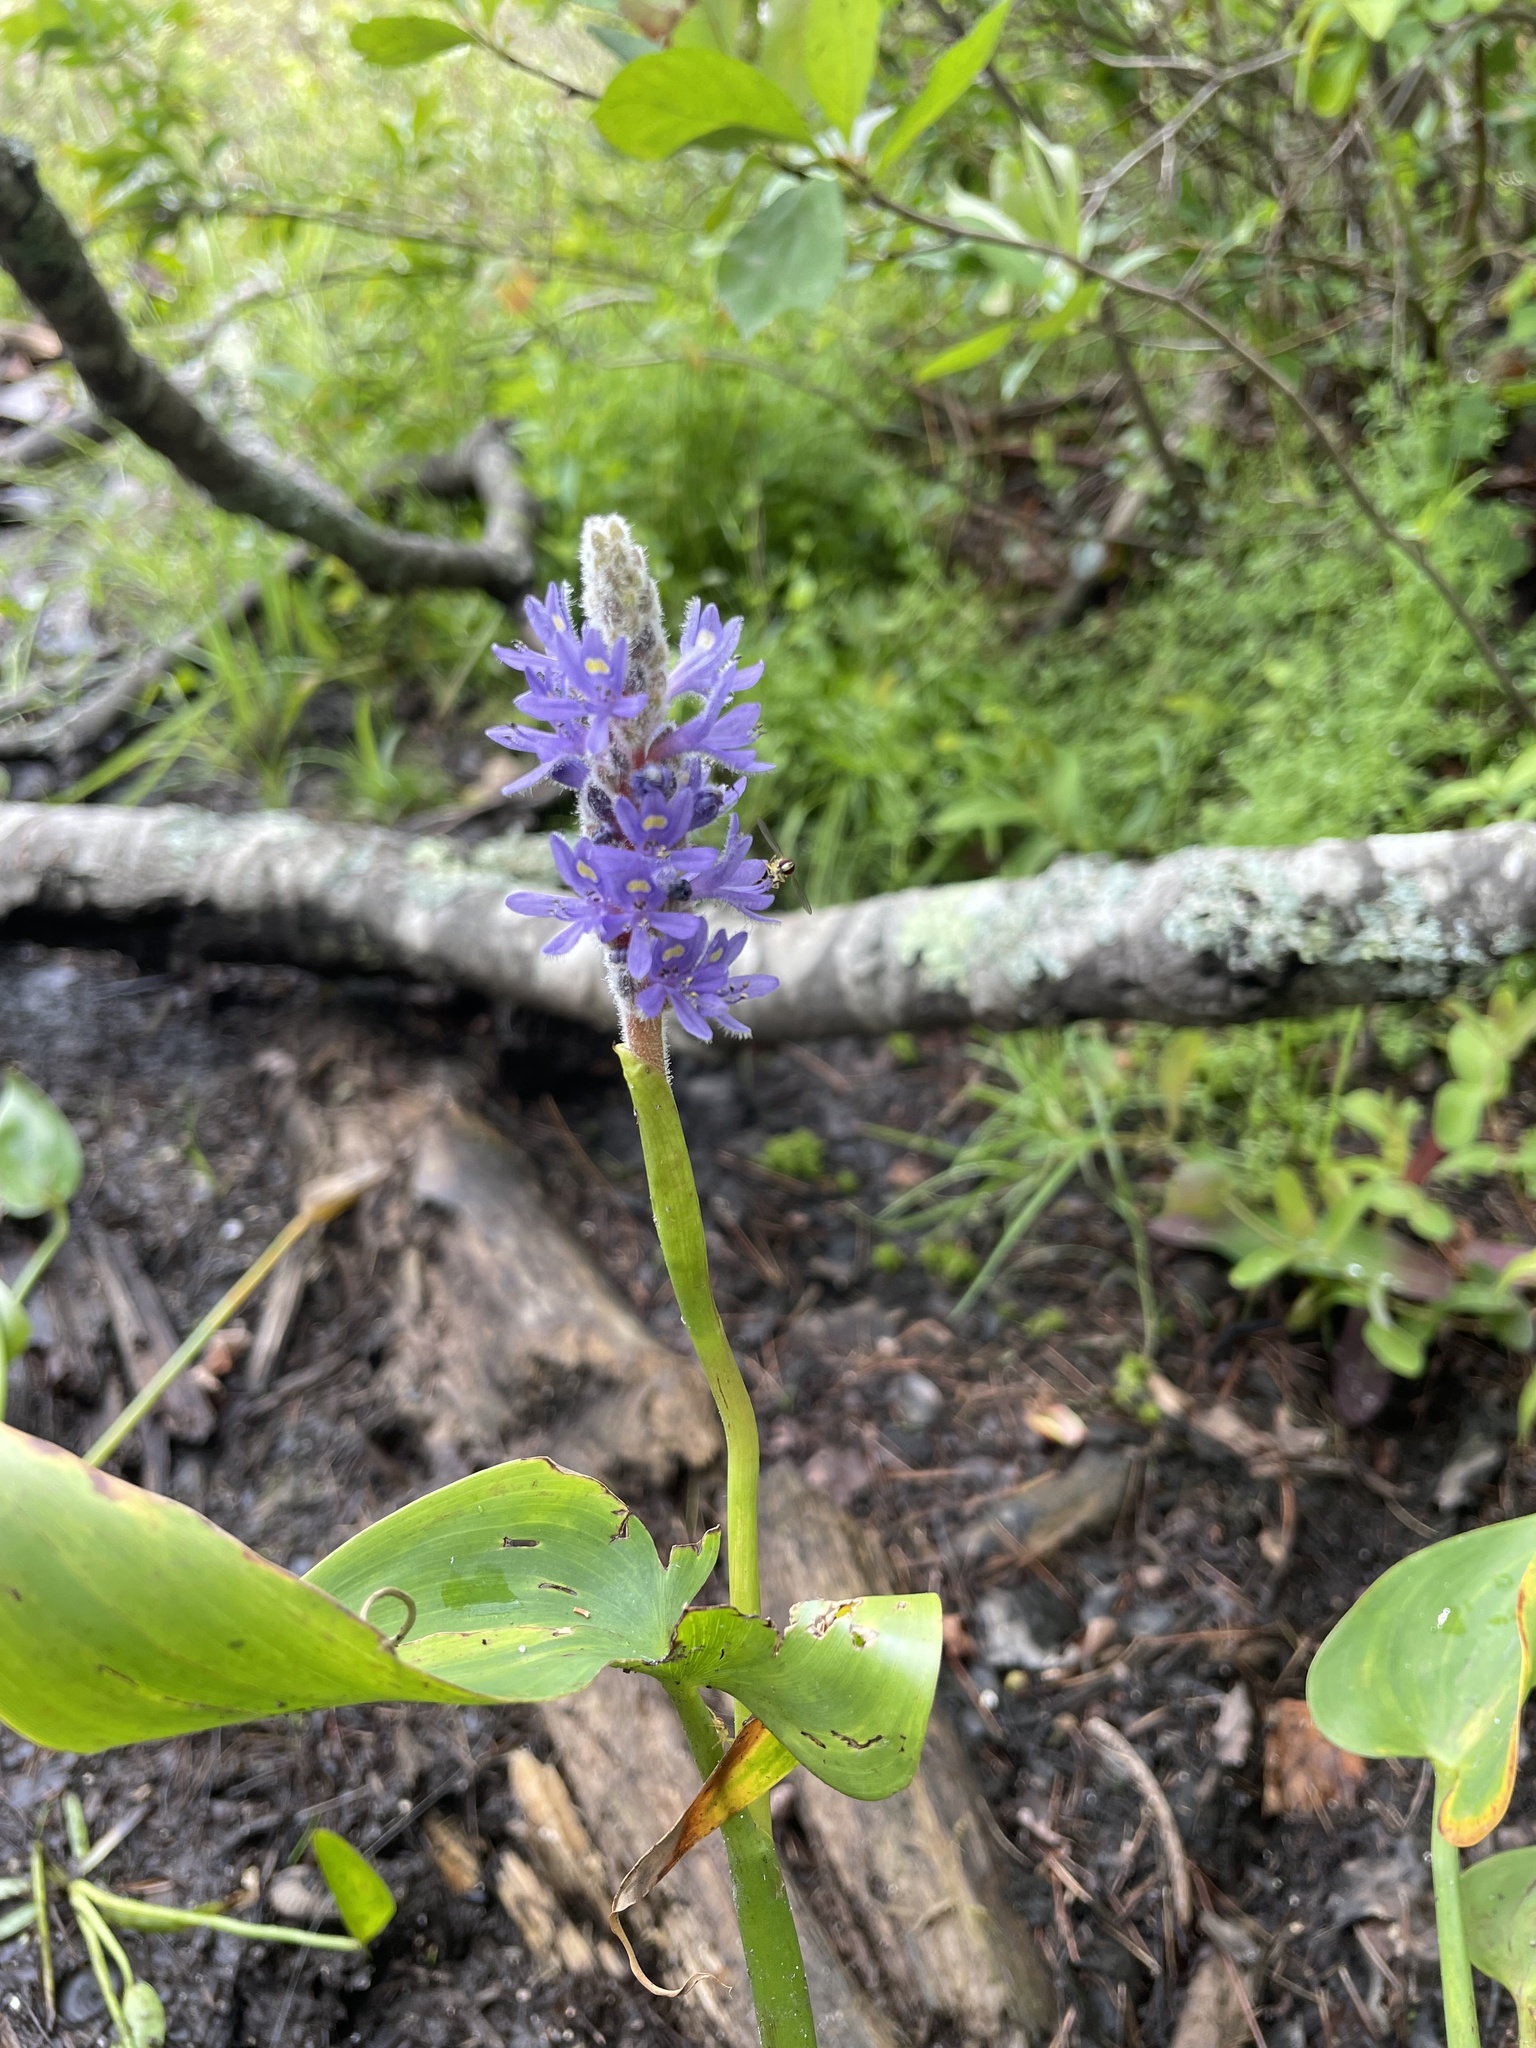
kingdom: Plantae
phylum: Tracheophyta
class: Liliopsida
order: Commelinales
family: Pontederiaceae
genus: Pontederia
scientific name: Pontederia cordata
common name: Pickerelweed
